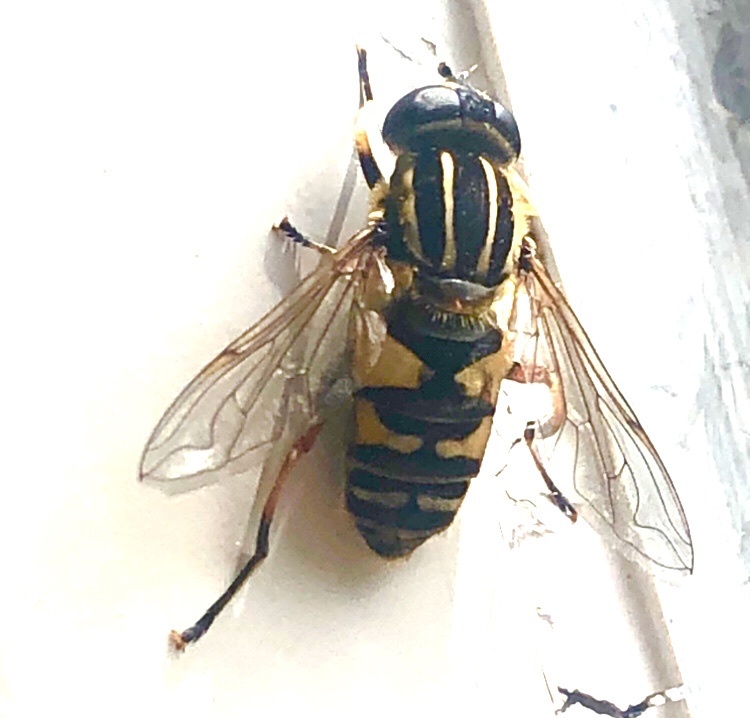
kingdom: Animalia
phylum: Arthropoda
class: Insecta
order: Diptera
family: Syrphidae
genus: Helophilus
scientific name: Helophilus pendulus
